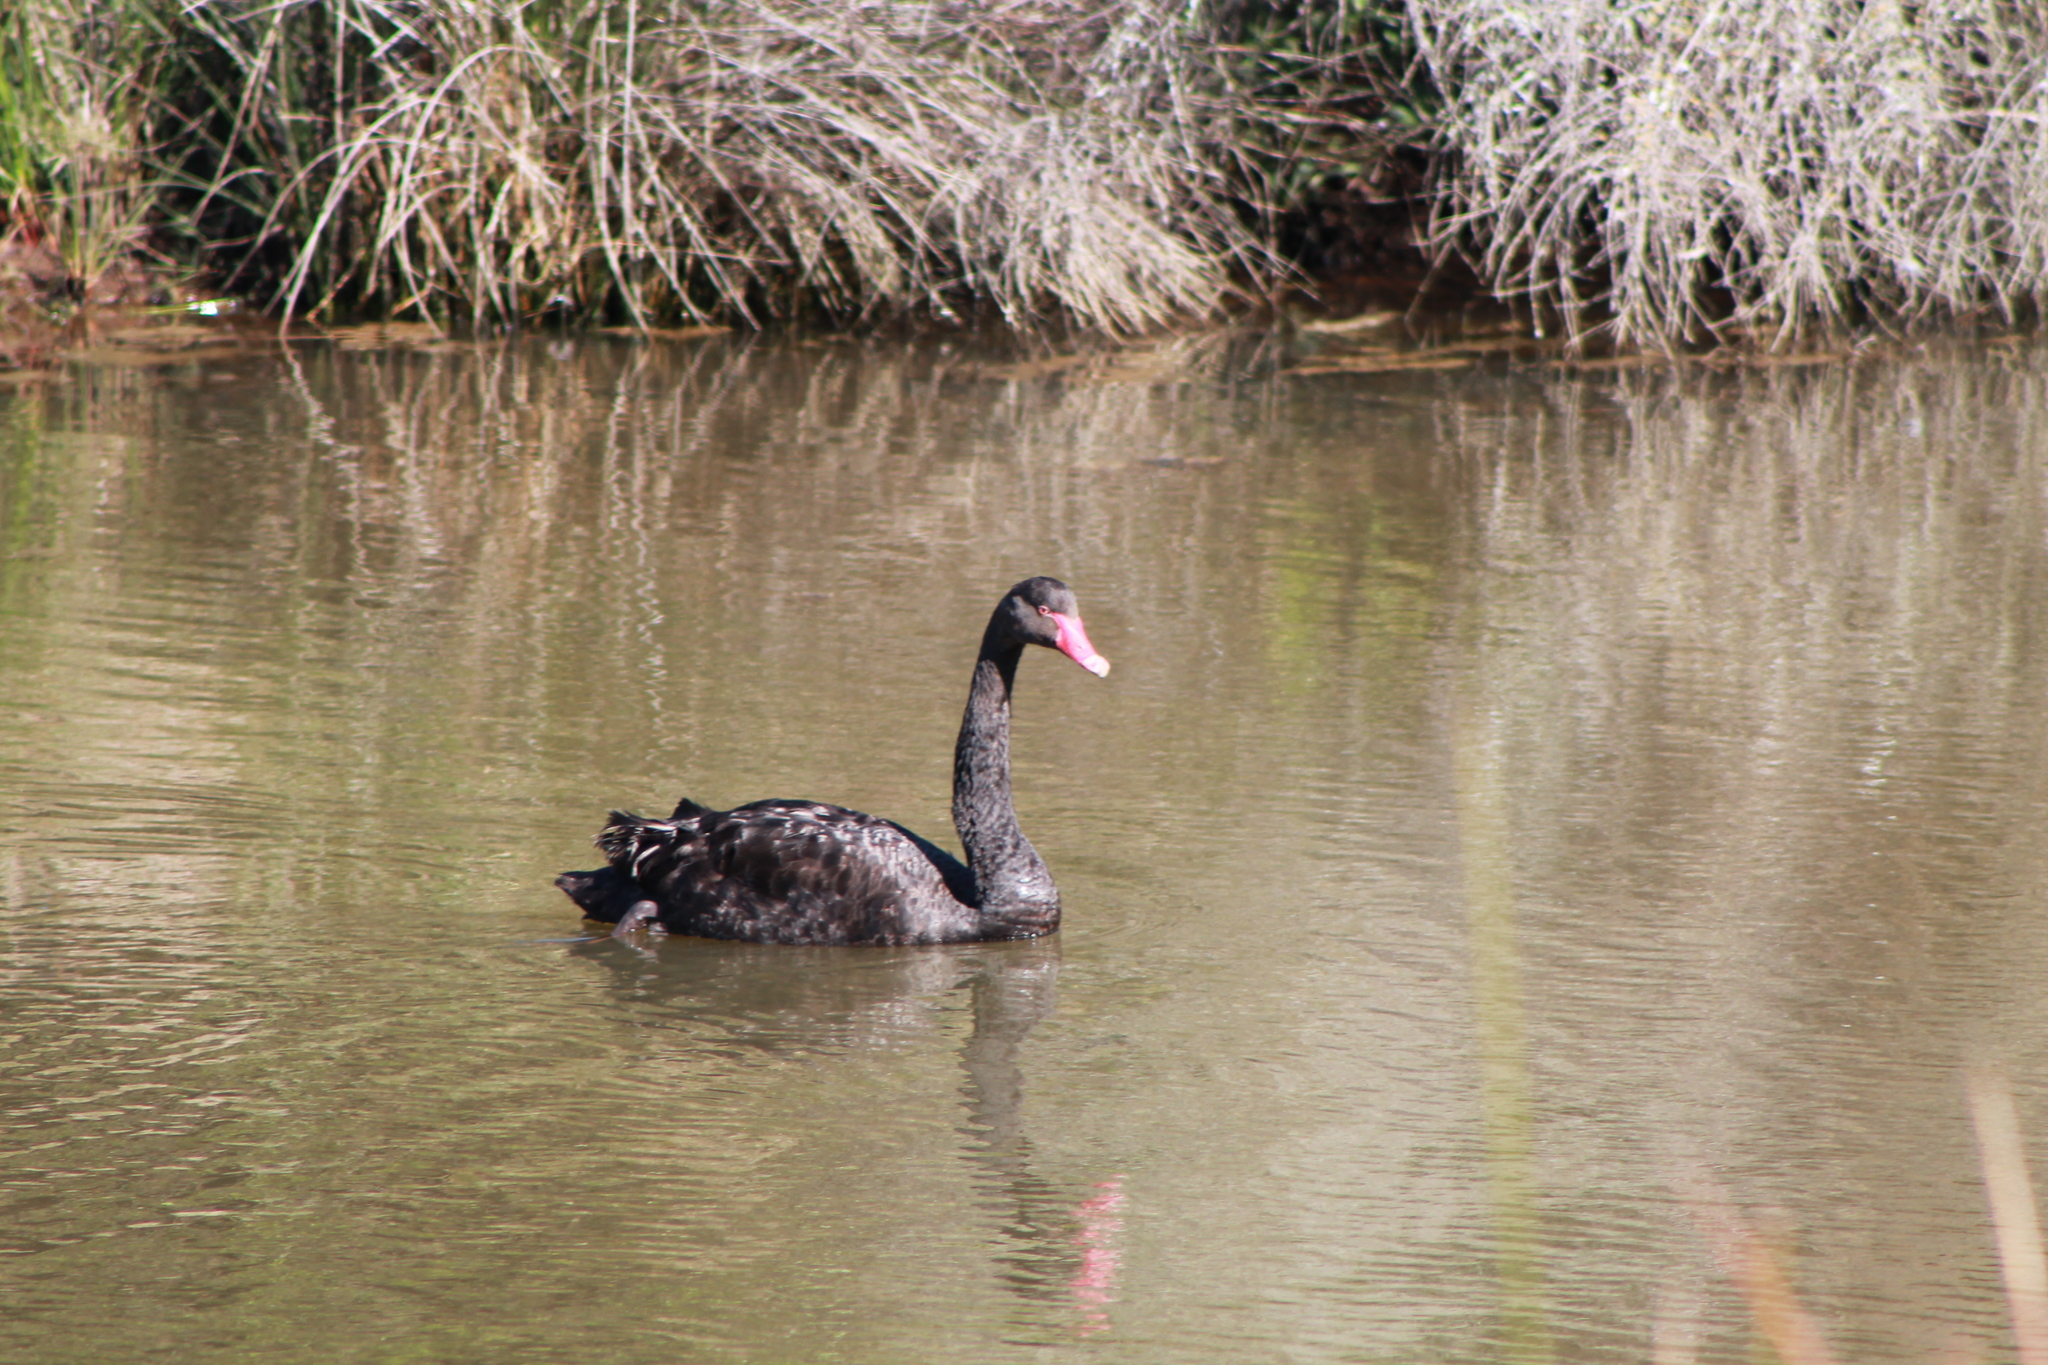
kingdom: Animalia
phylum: Chordata
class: Aves
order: Anseriformes
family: Anatidae
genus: Cygnus
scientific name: Cygnus atratus
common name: Black swan
